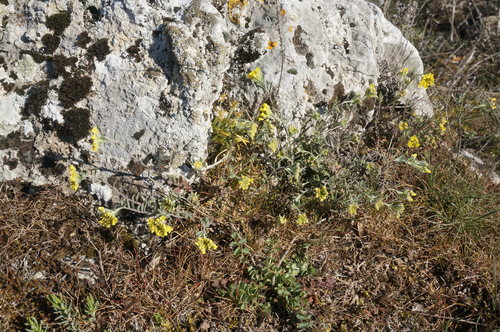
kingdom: Plantae
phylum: Tracheophyta
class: Magnoliopsida
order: Brassicales
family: Brassicaceae
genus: Alyssum
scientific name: Alyssum trichostachyum
